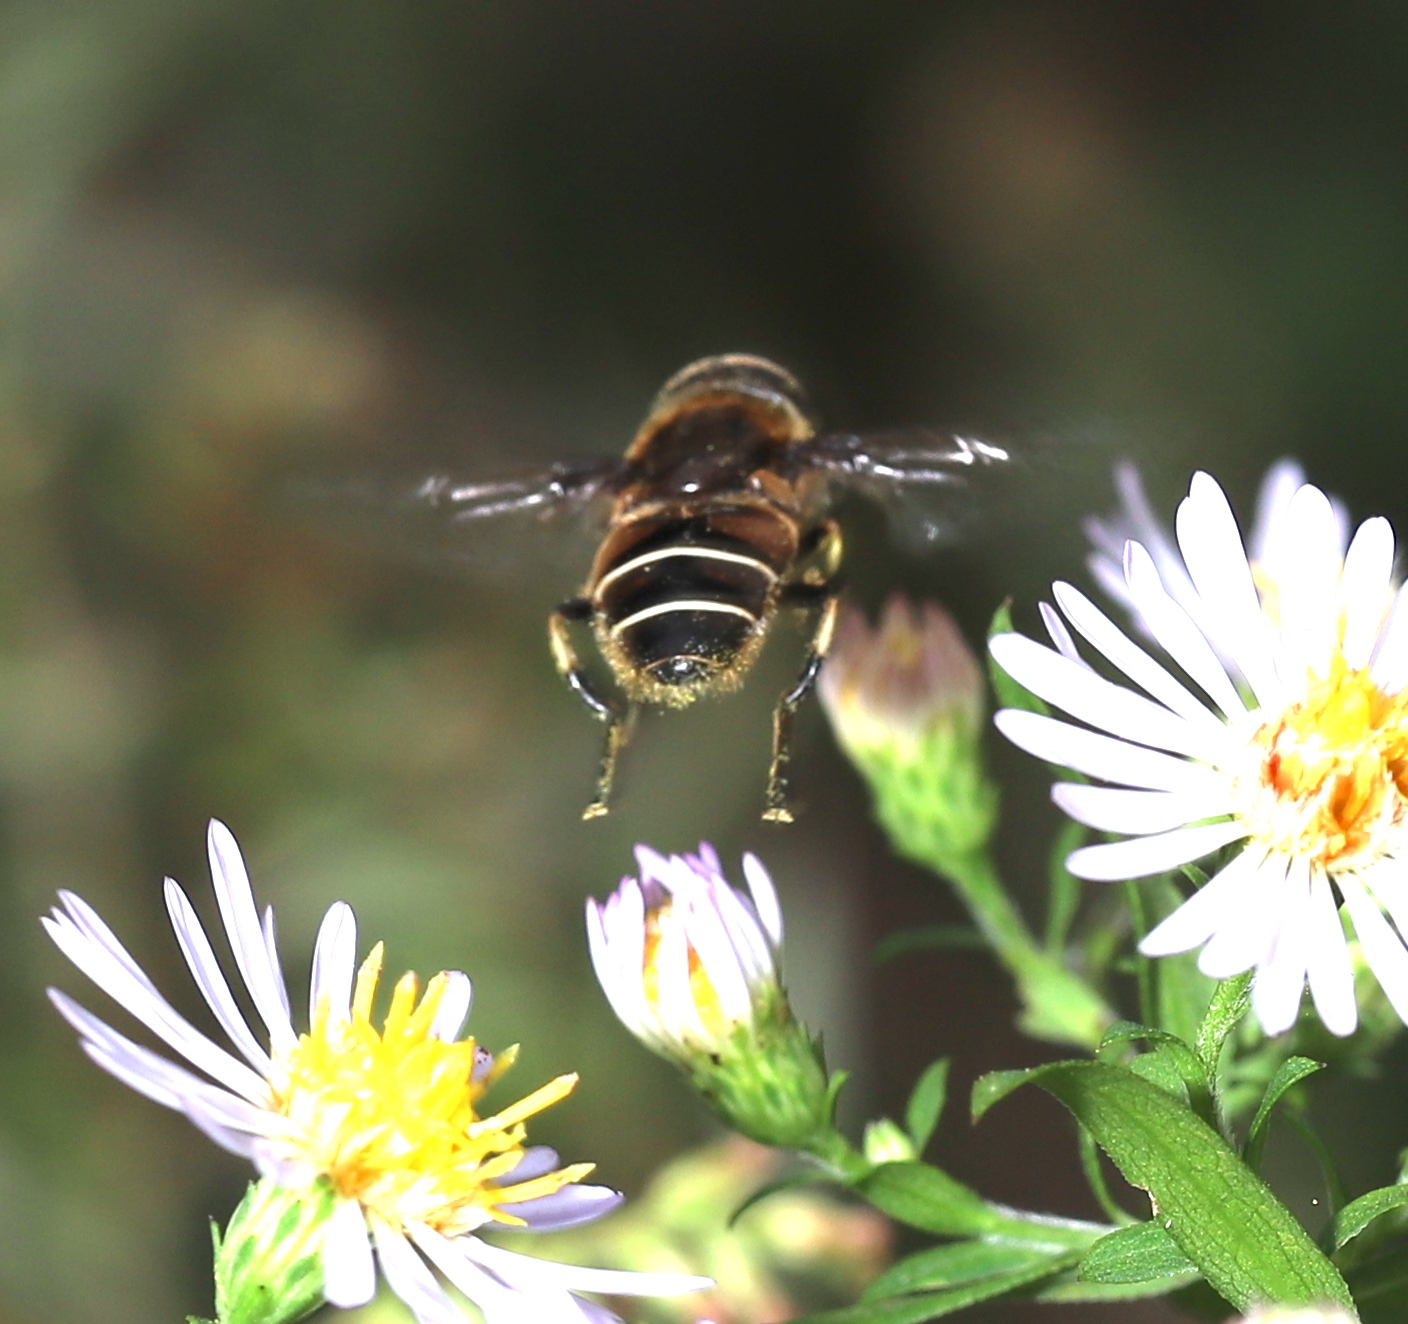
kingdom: Animalia
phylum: Arthropoda
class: Insecta
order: Diptera
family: Syrphidae
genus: Eristalis
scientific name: Eristalis dimidiata
